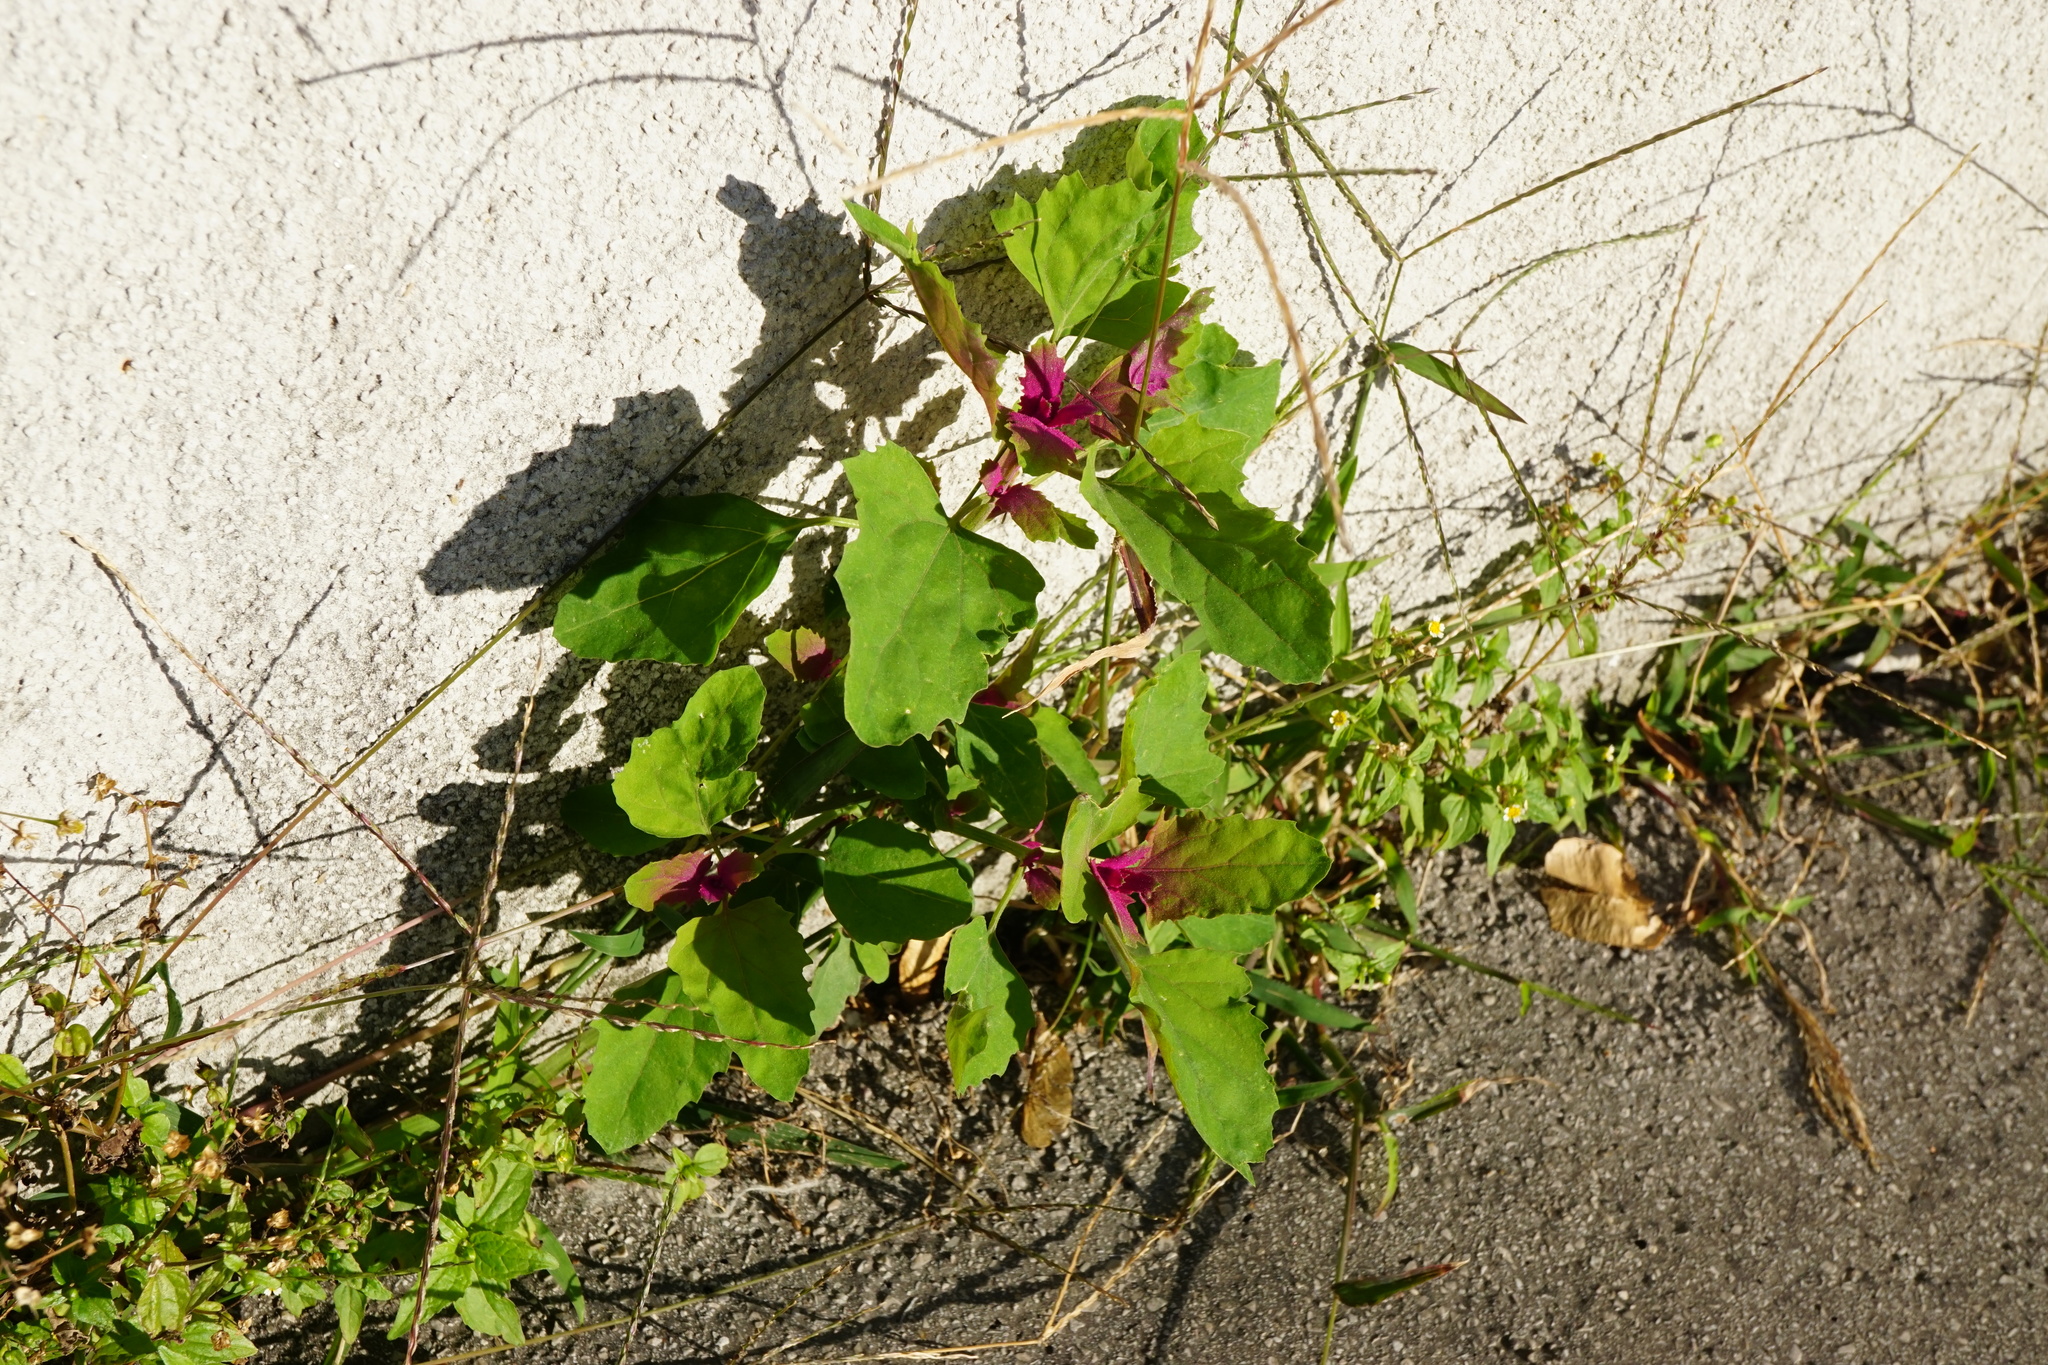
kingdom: Plantae
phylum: Tracheophyta
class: Magnoliopsida
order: Caryophyllales
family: Amaranthaceae
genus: Chenopodium
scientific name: Chenopodium giganteum
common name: Magentaspreen
